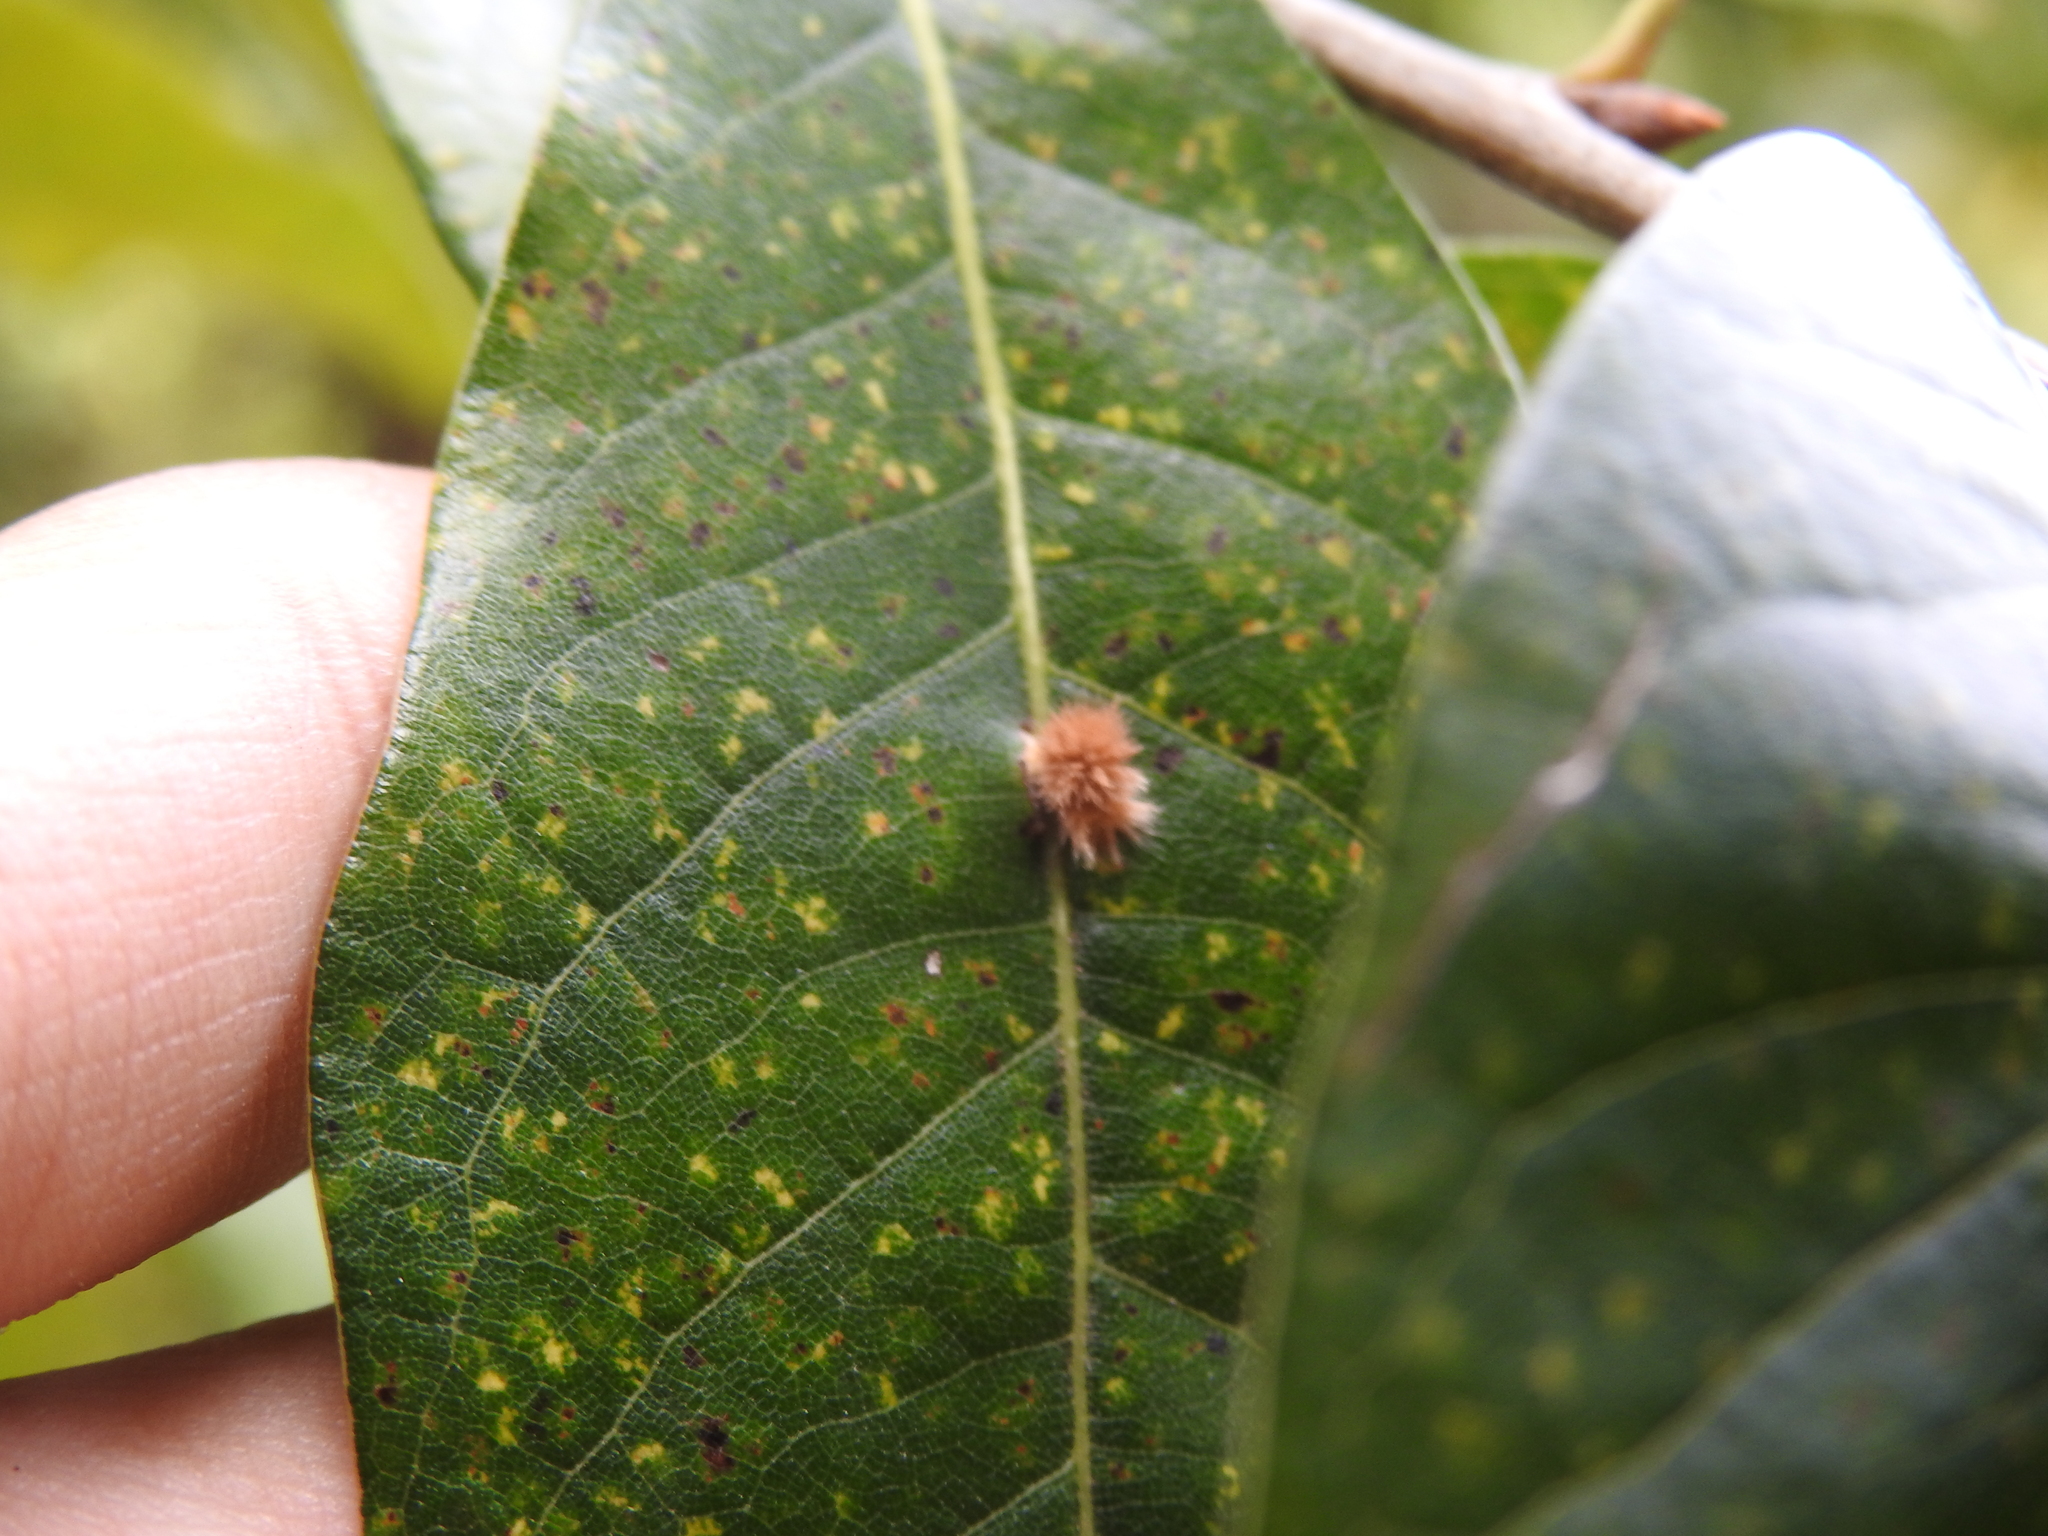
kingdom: Animalia
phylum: Arthropoda
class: Insecta
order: Hymenoptera
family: Cynipidae
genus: Callirhytis
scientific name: Callirhytis
